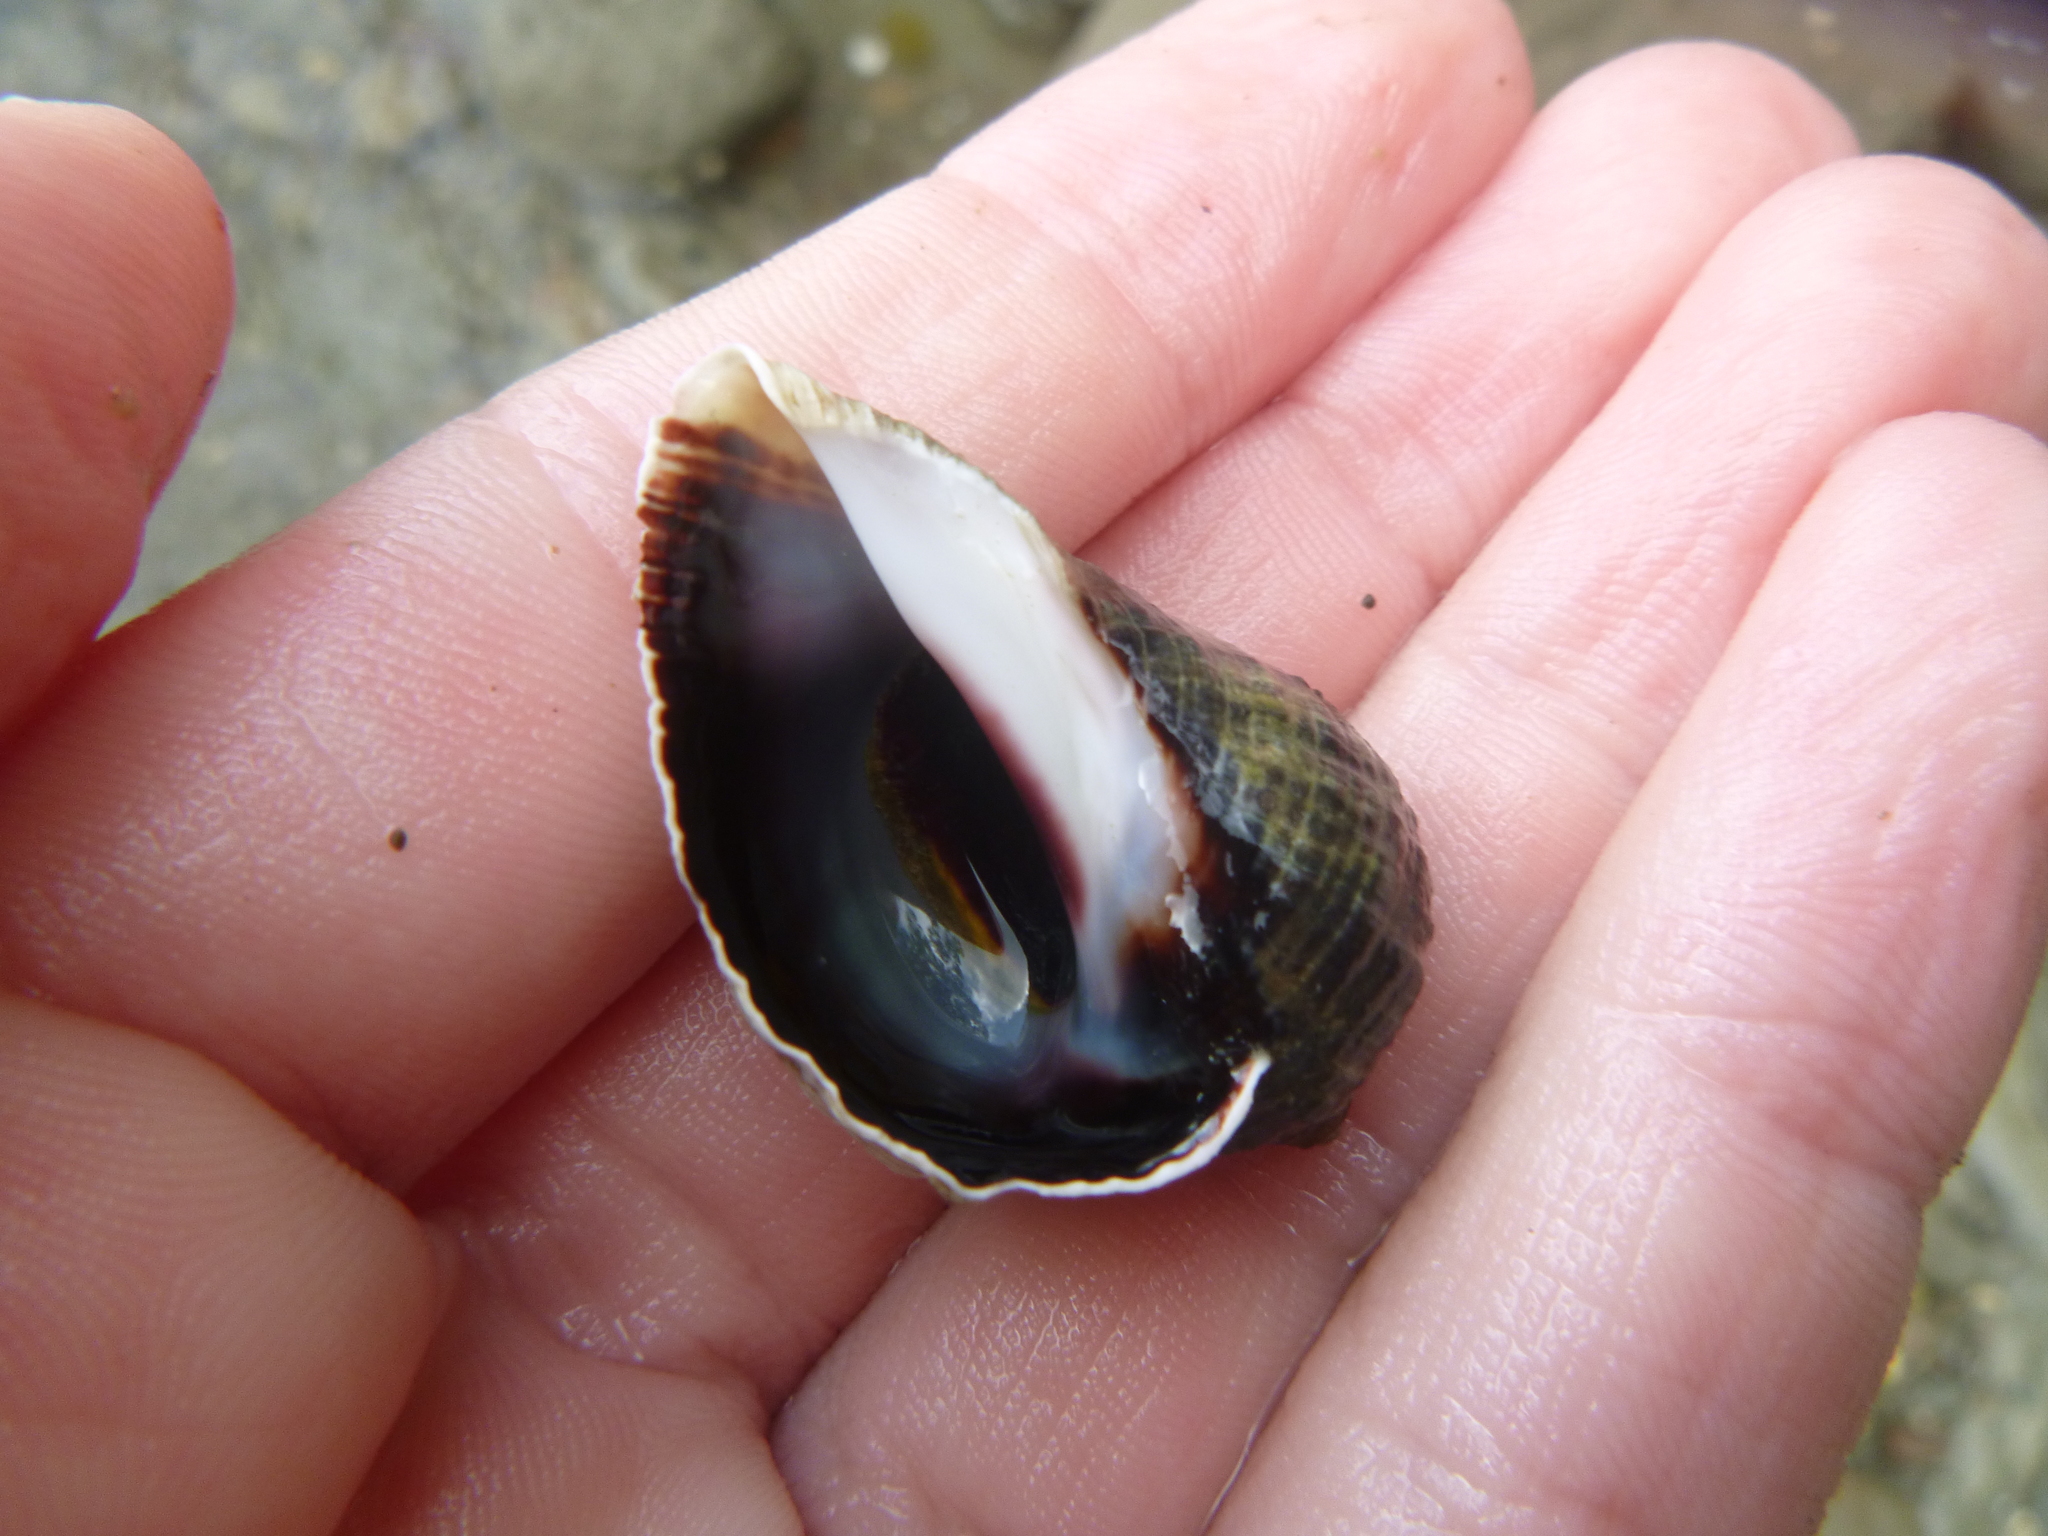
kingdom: Animalia
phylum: Mollusca
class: Gastropoda
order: Neogastropoda
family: Muricidae
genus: Haustrum
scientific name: Haustrum haustorium
